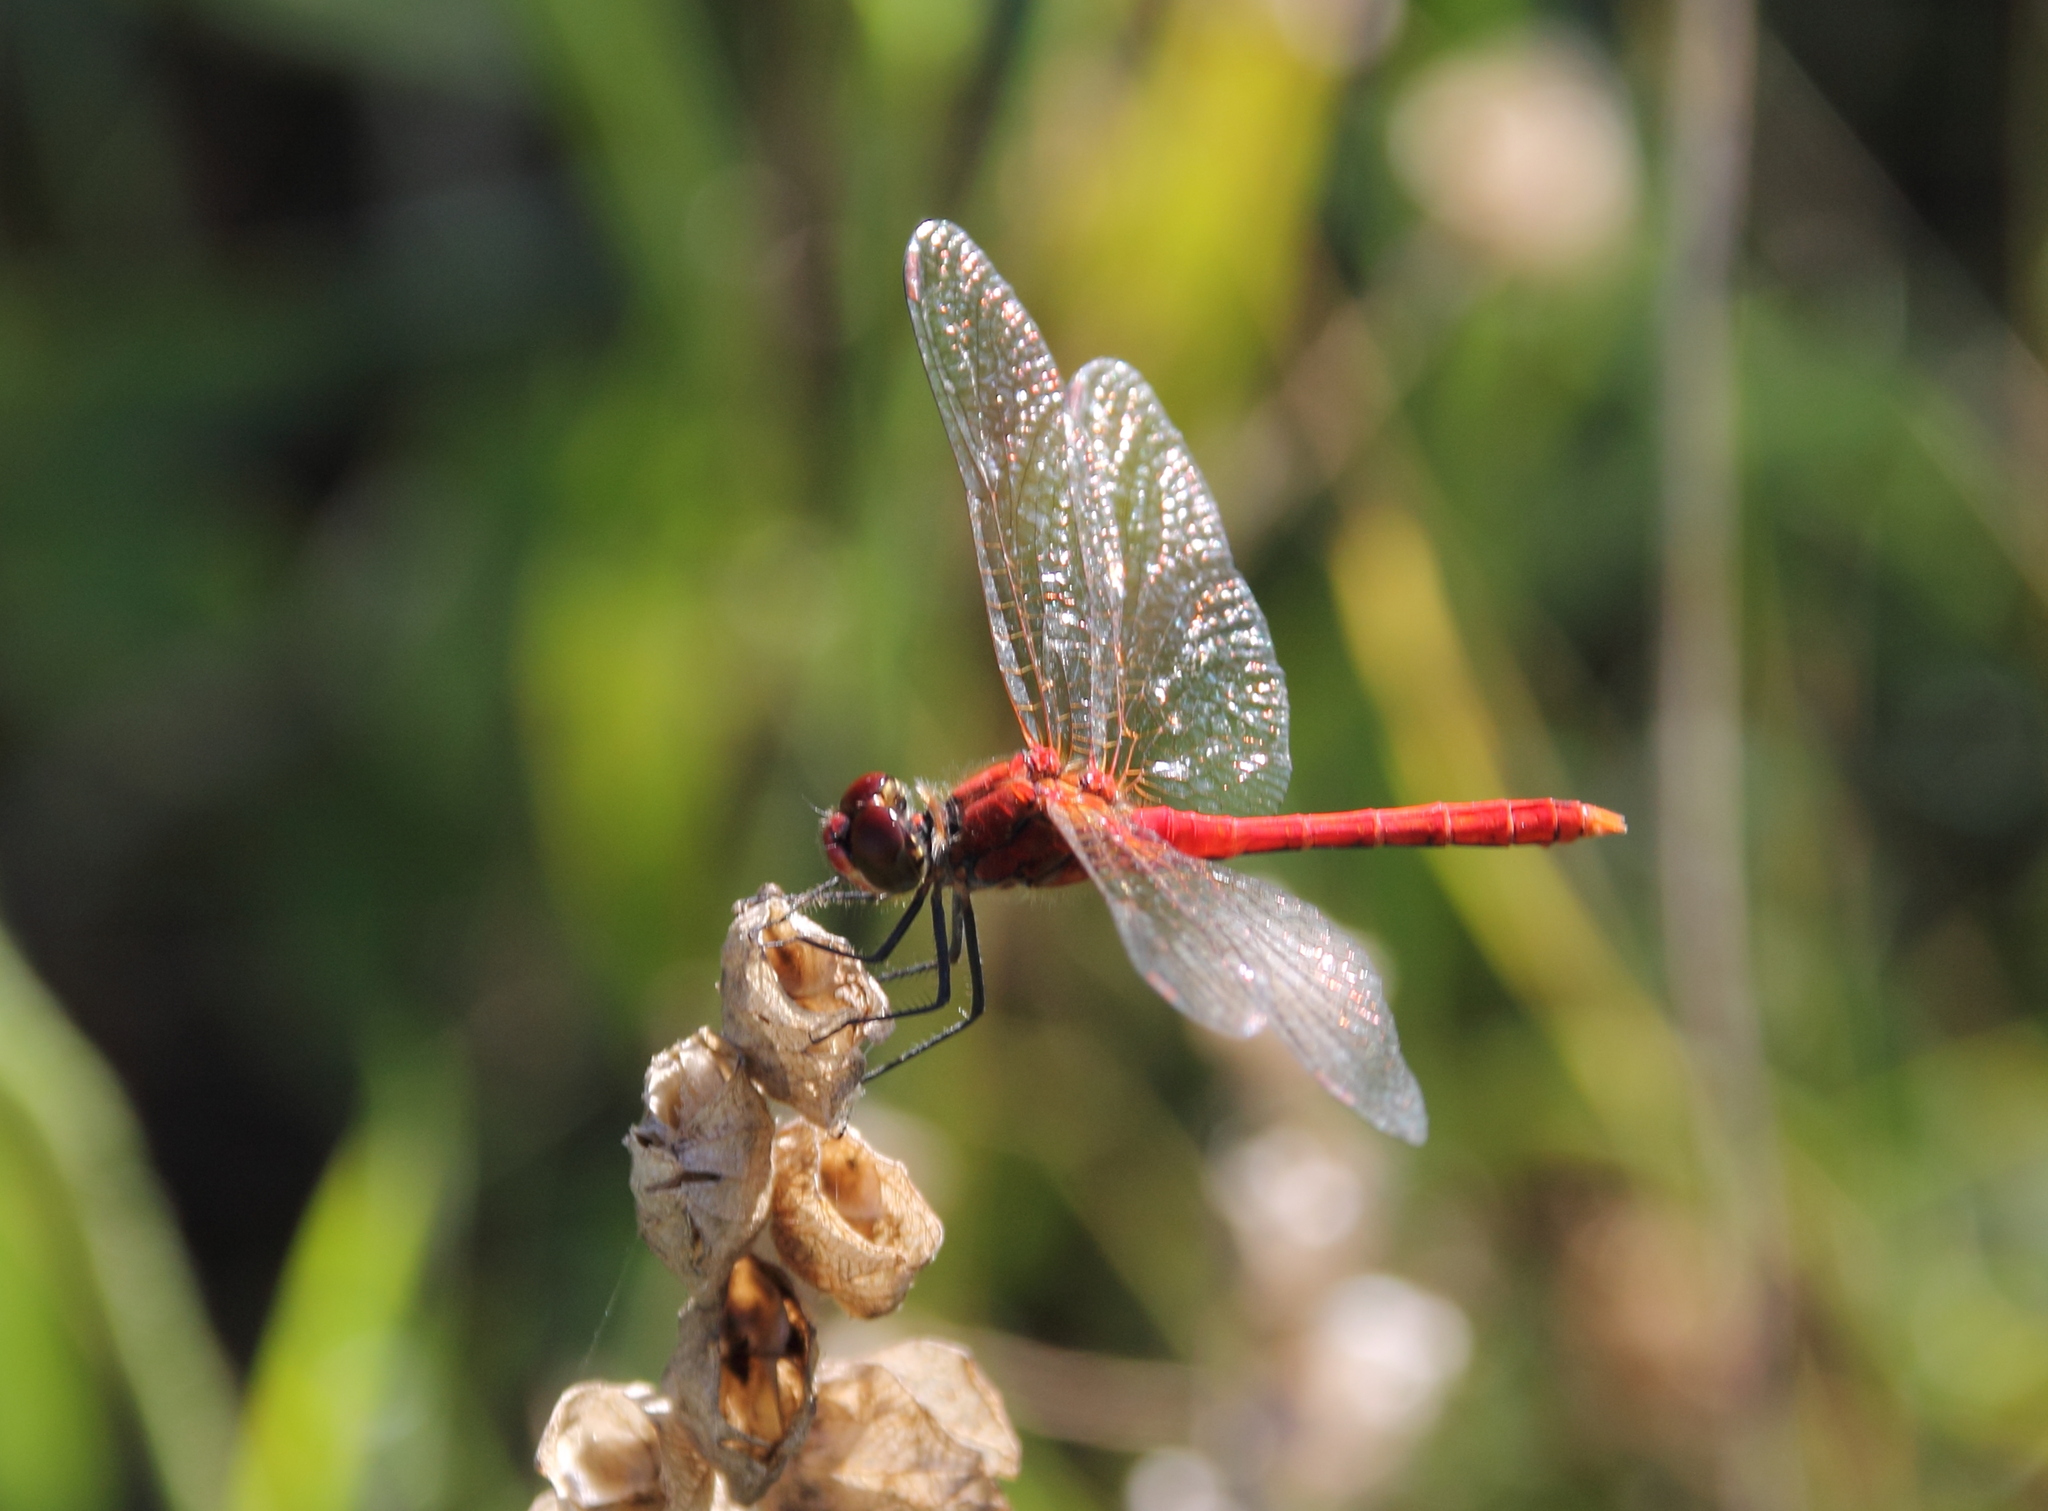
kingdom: Animalia
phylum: Arthropoda
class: Insecta
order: Odonata
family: Libellulidae
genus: Sympetrum
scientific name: Sympetrum sanguineum
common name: Ruddy darter
